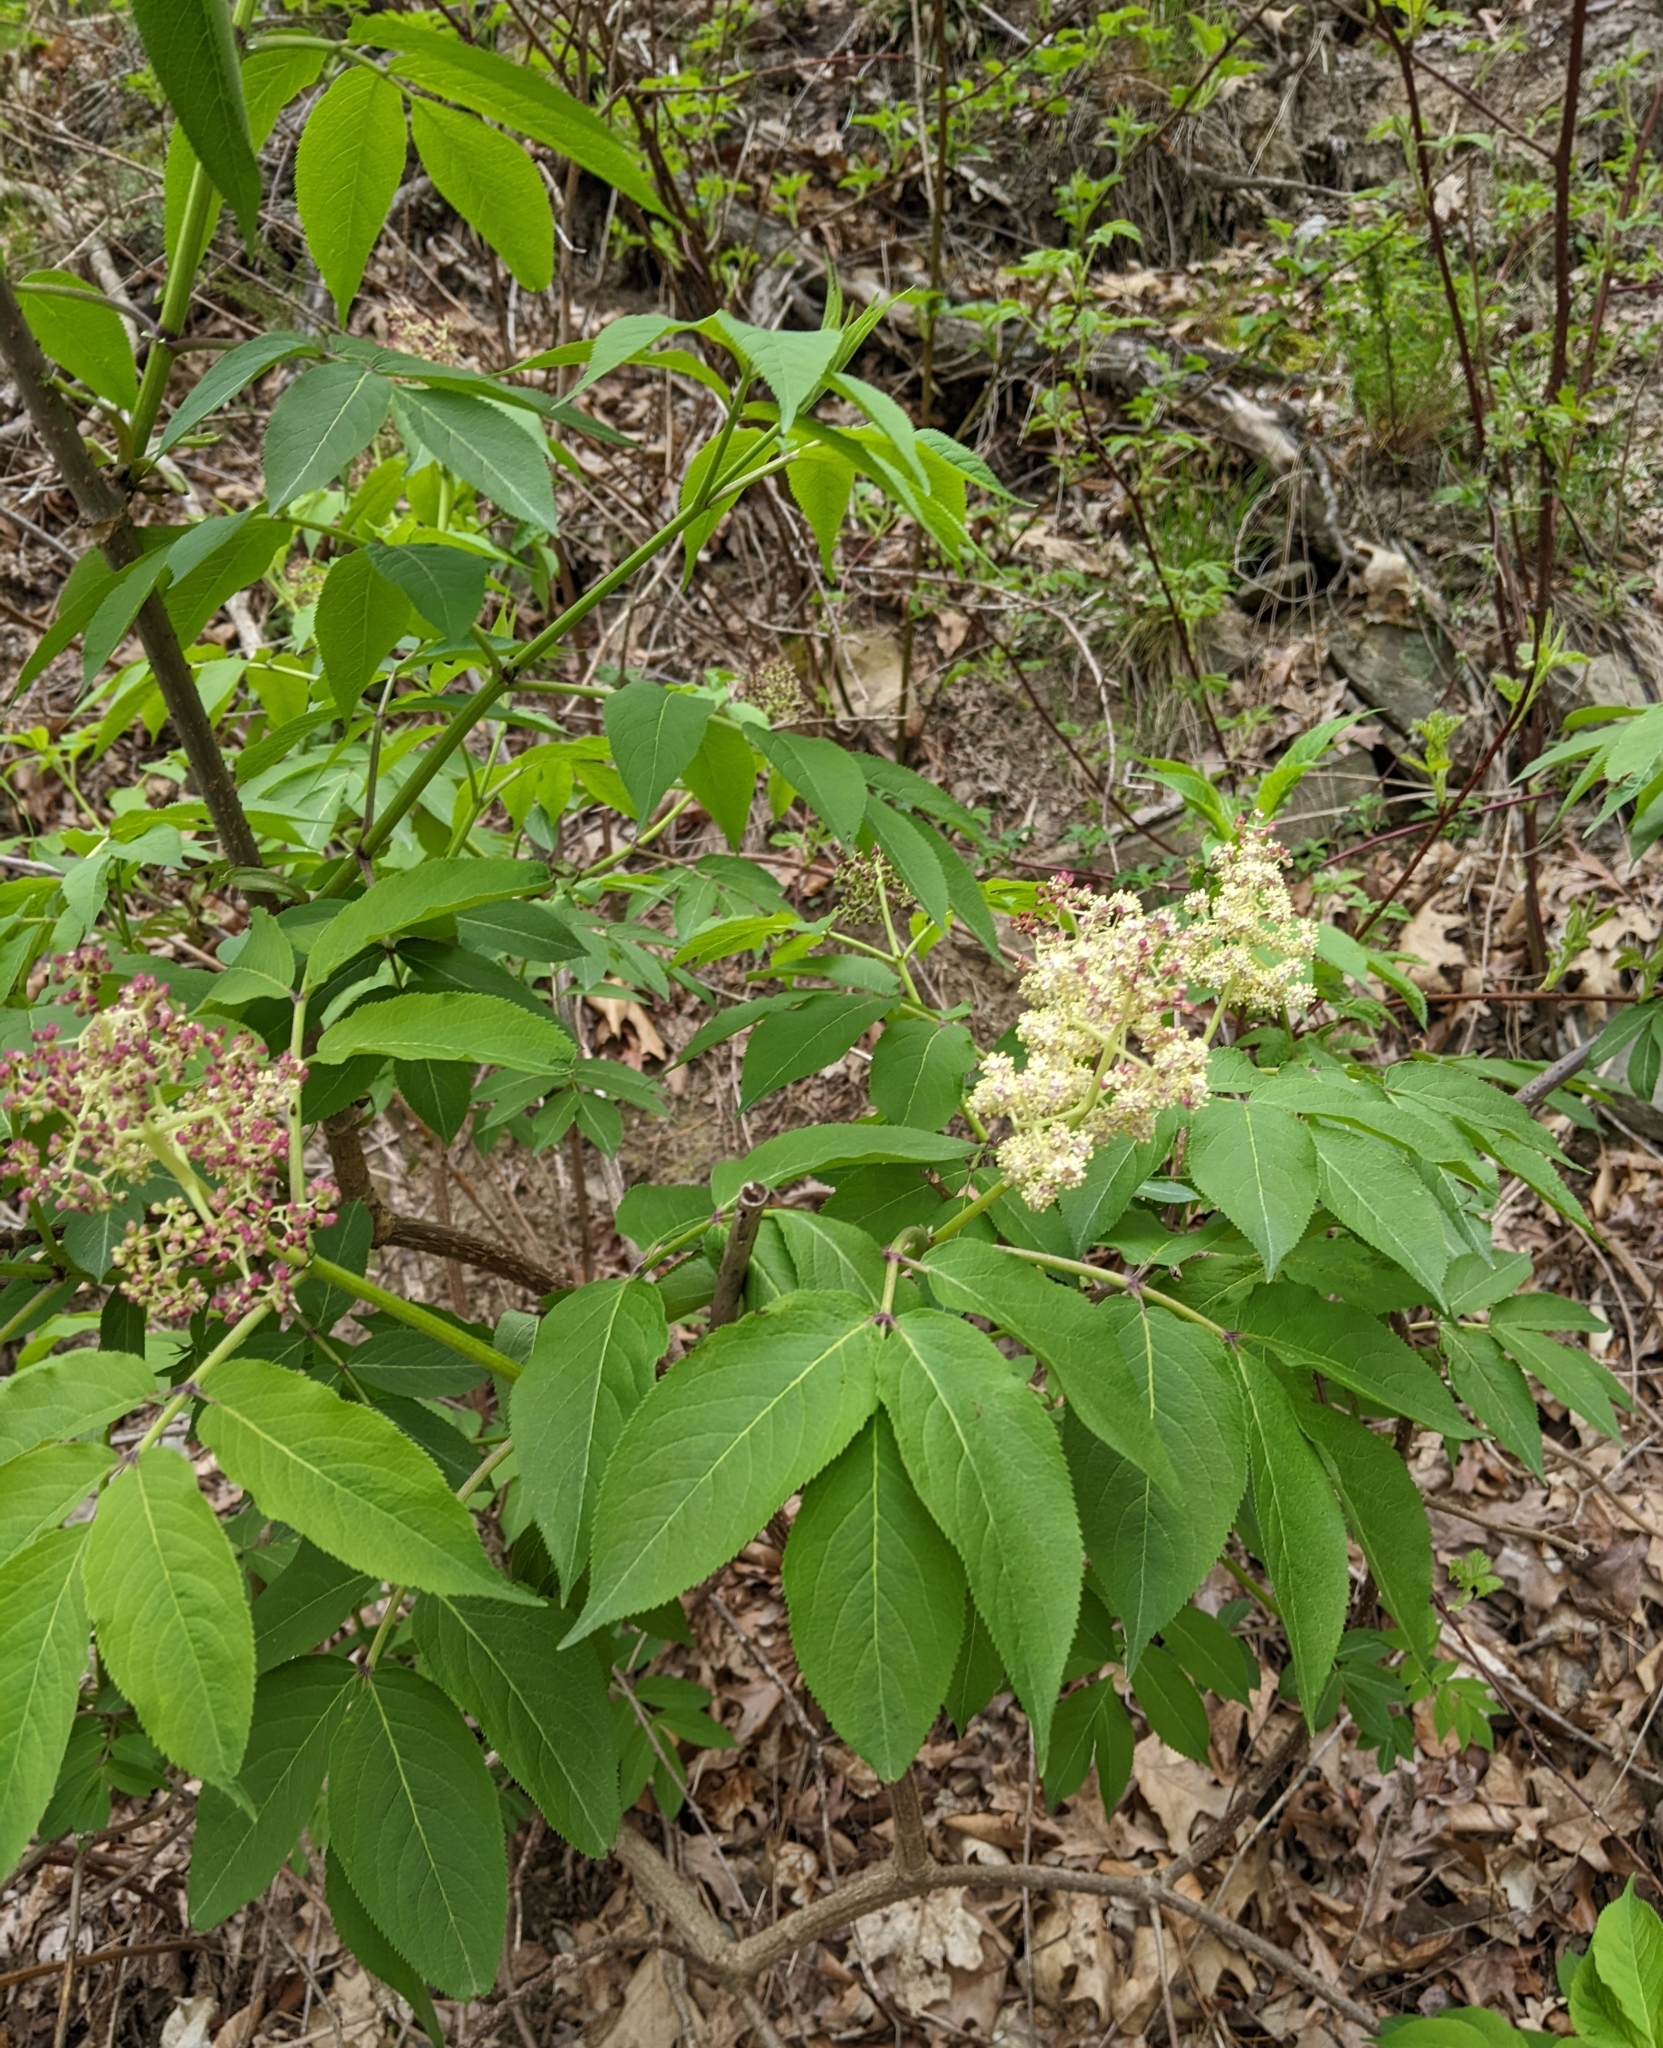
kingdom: Plantae
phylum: Tracheophyta
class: Magnoliopsida
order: Dipsacales
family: Viburnaceae
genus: Sambucus
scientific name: Sambucus racemosa
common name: Red-berried elder
